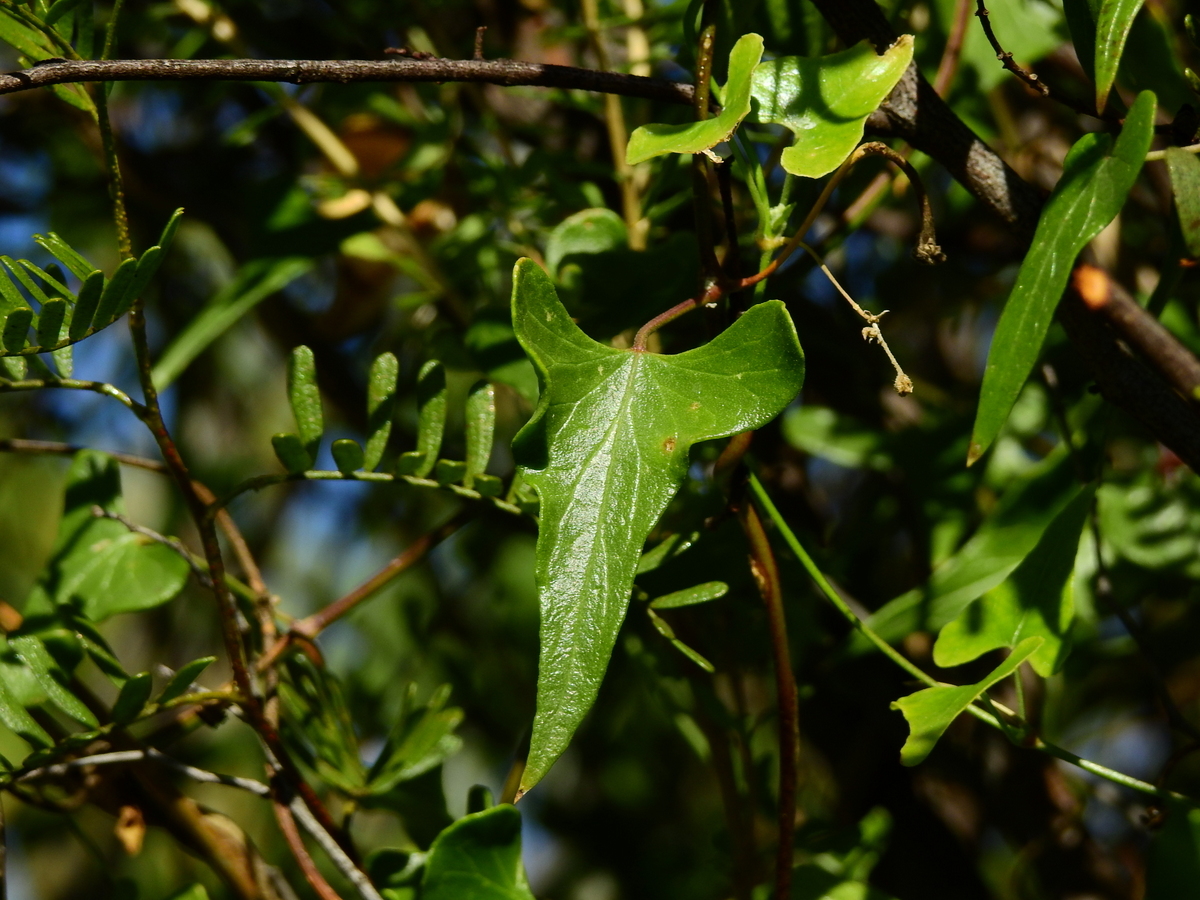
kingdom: Plantae
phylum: Tracheophyta
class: Magnoliopsida
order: Gentianales
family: Apocynaceae
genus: Philibertia
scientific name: Philibertia gilliesii
